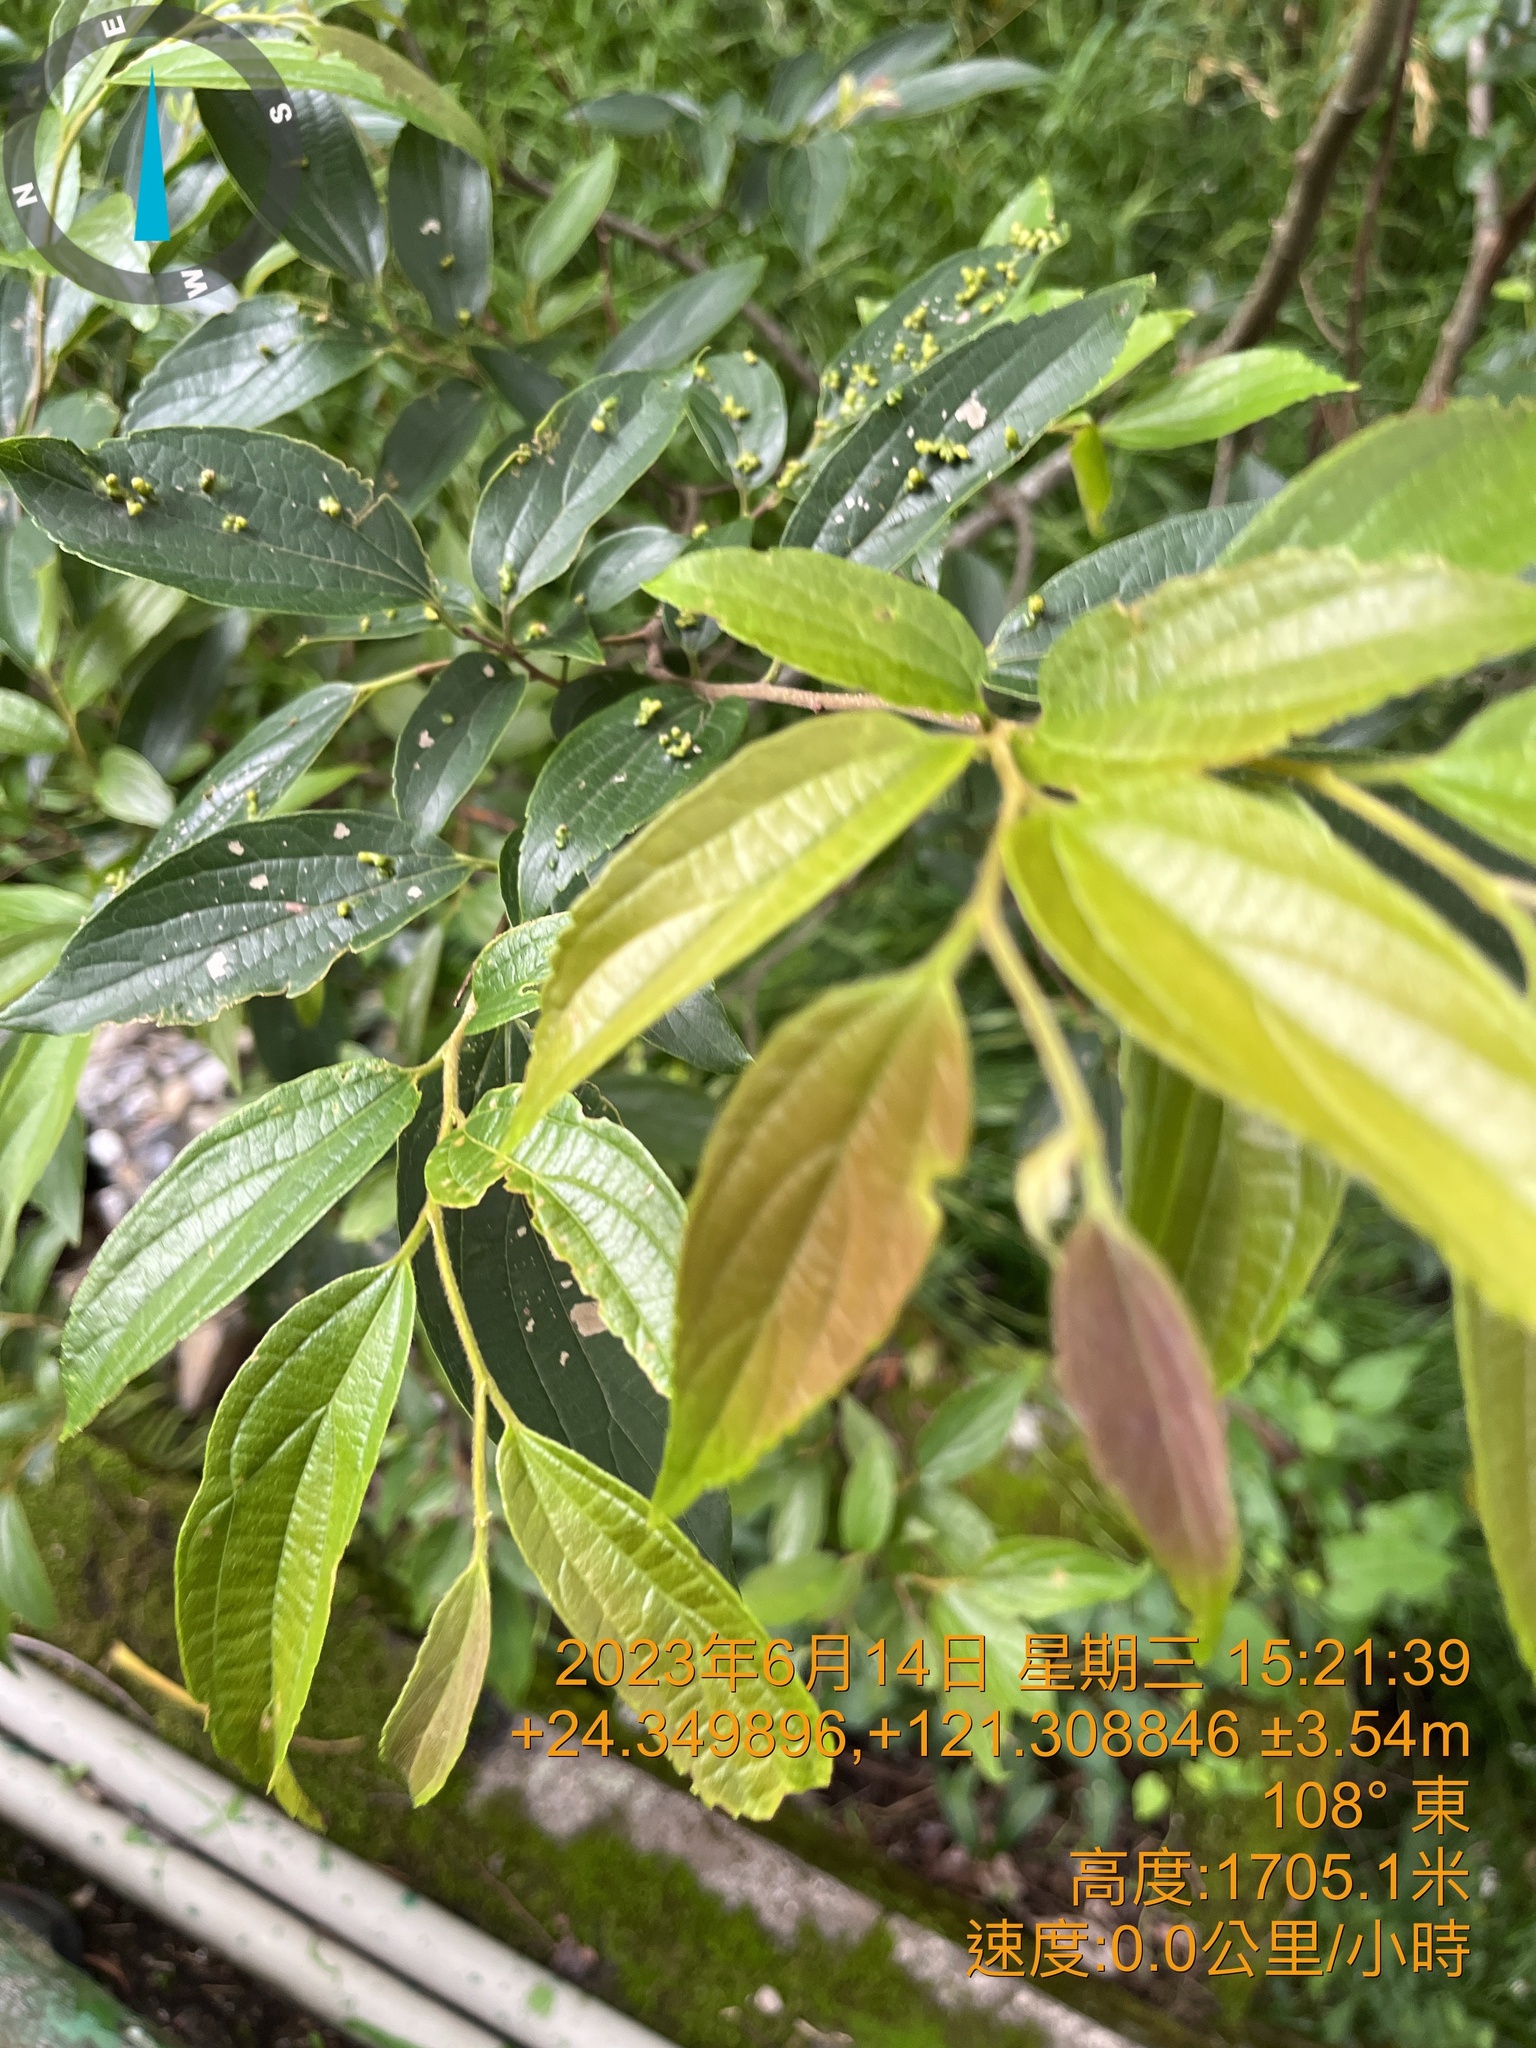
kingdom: Plantae
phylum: Tracheophyta
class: Magnoliopsida
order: Rosales
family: Cannabaceae
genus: Celtis
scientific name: Celtis sinensis
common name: Chinese hackberry
